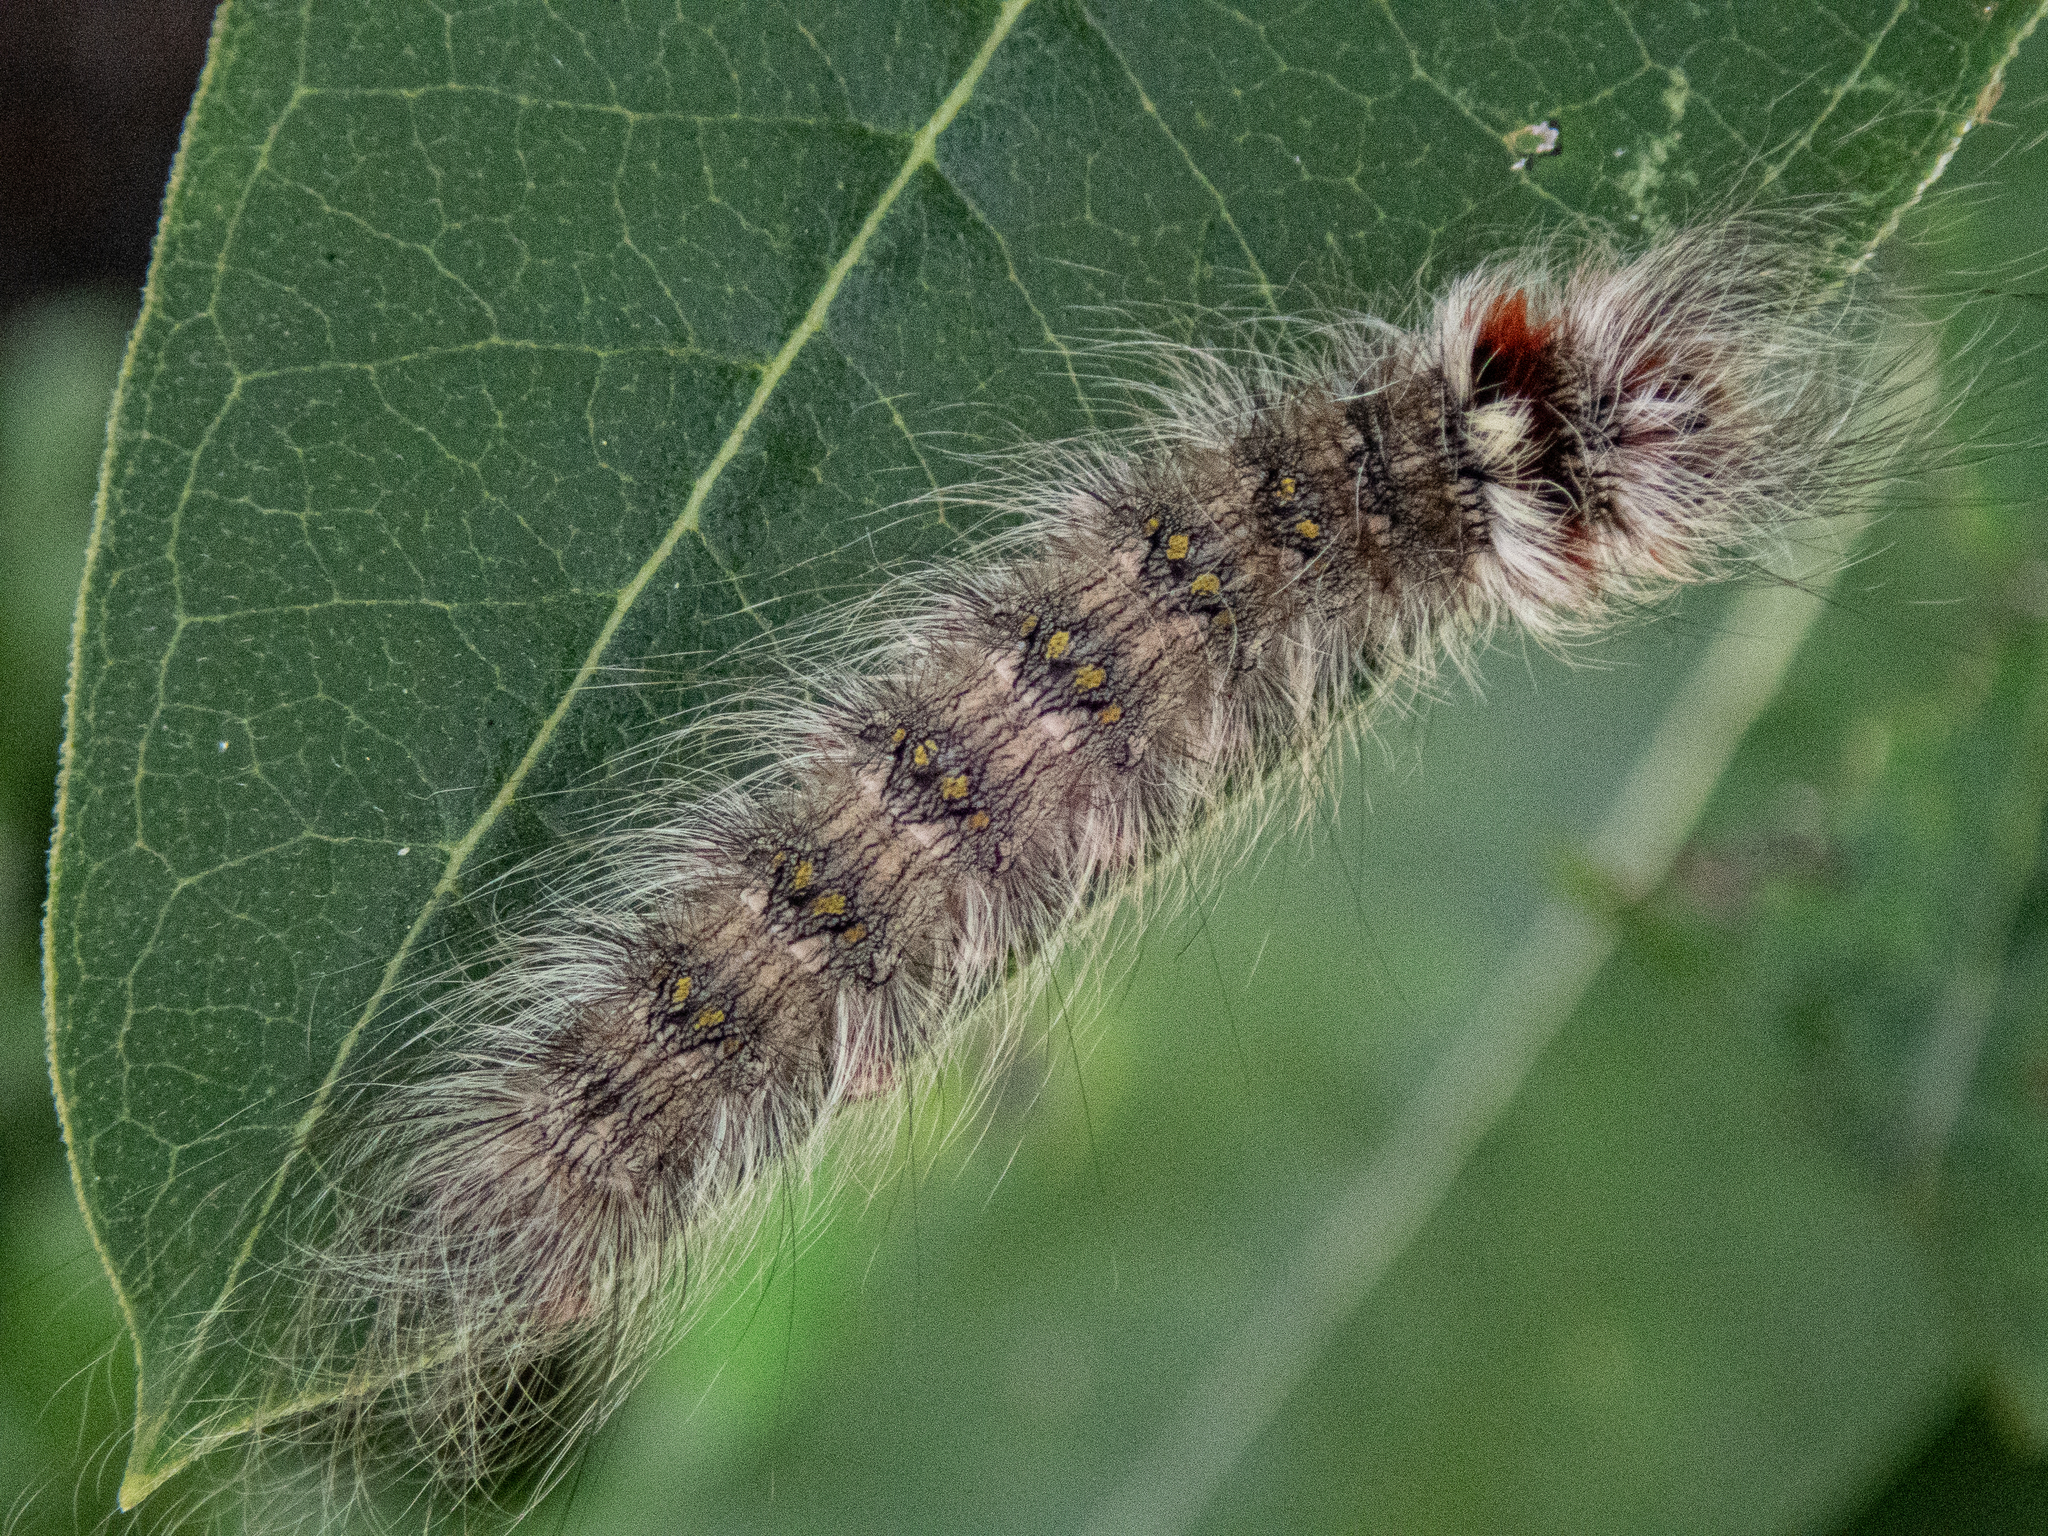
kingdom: Animalia
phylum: Arthropoda
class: Insecta
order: Lepidoptera
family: Apatelodidae
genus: Olceclostera
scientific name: Olceclostera angelica
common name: Angel moth
